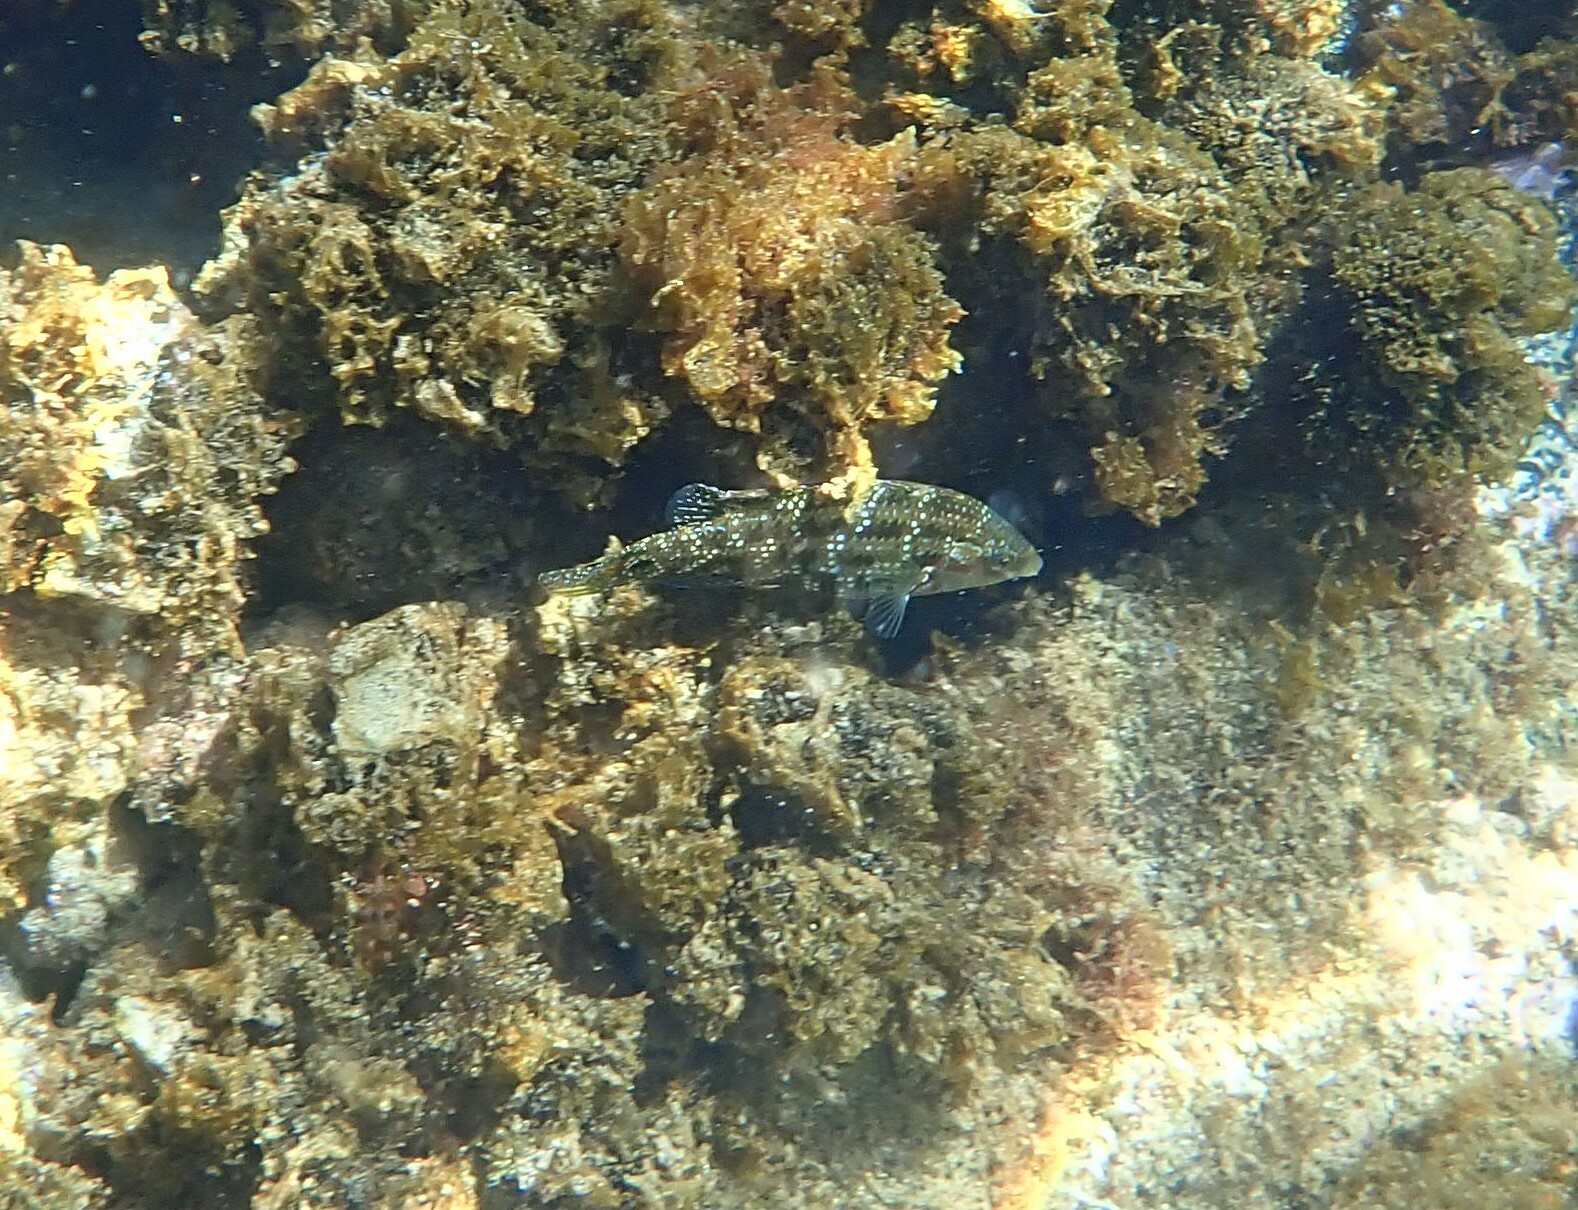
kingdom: Animalia
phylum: Chordata
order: Perciformes
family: Labridae
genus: Symphodus
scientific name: Symphodus caeruleus
